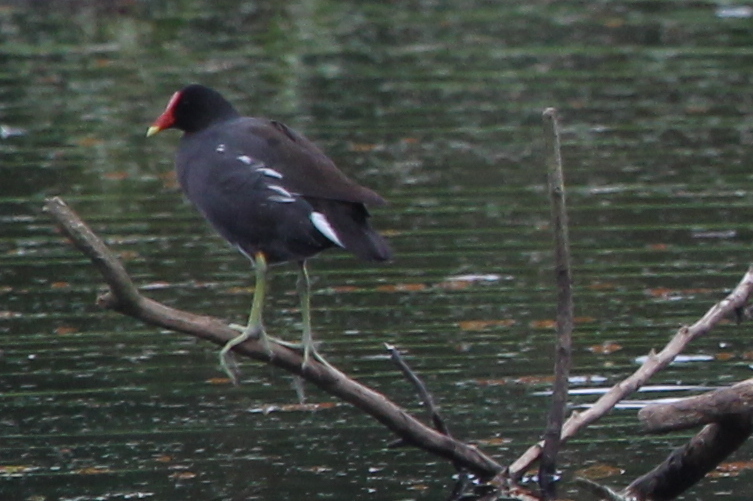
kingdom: Animalia
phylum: Chordata
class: Aves
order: Gruiformes
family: Rallidae
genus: Gallinula
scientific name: Gallinula chloropus
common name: Common moorhen
